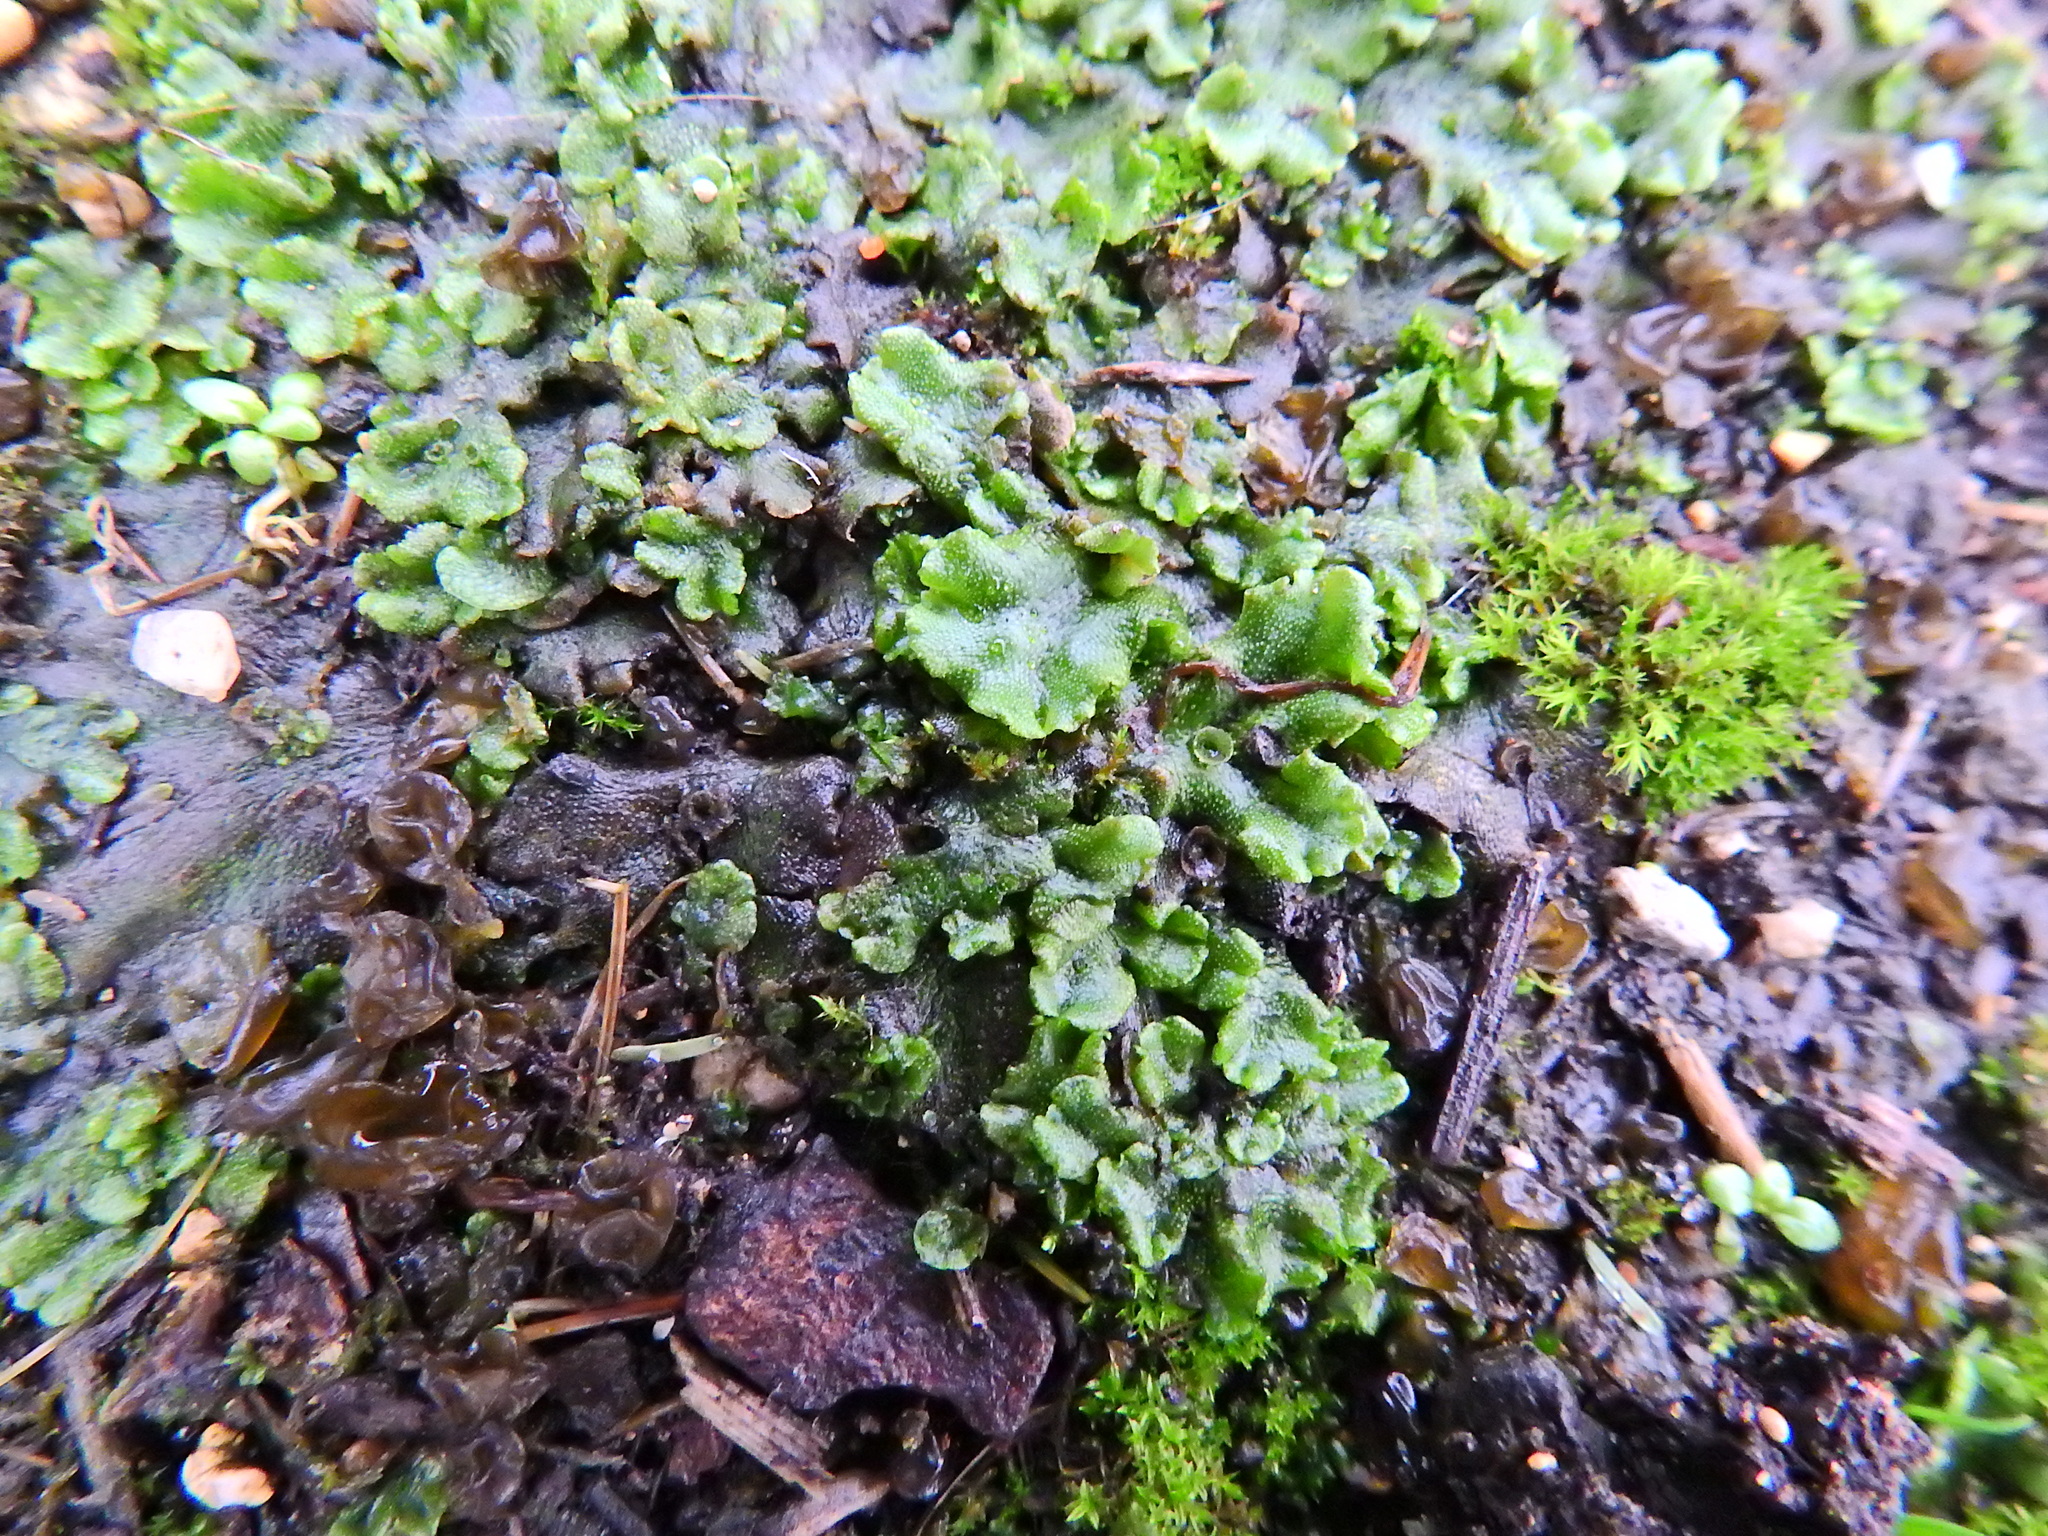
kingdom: Plantae
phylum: Marchantiophyta
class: Marchantiopsida
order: Marchantiales
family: Marchantiaceae
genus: Marchantia
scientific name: Marchantia polymorpha
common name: Common liverwort
